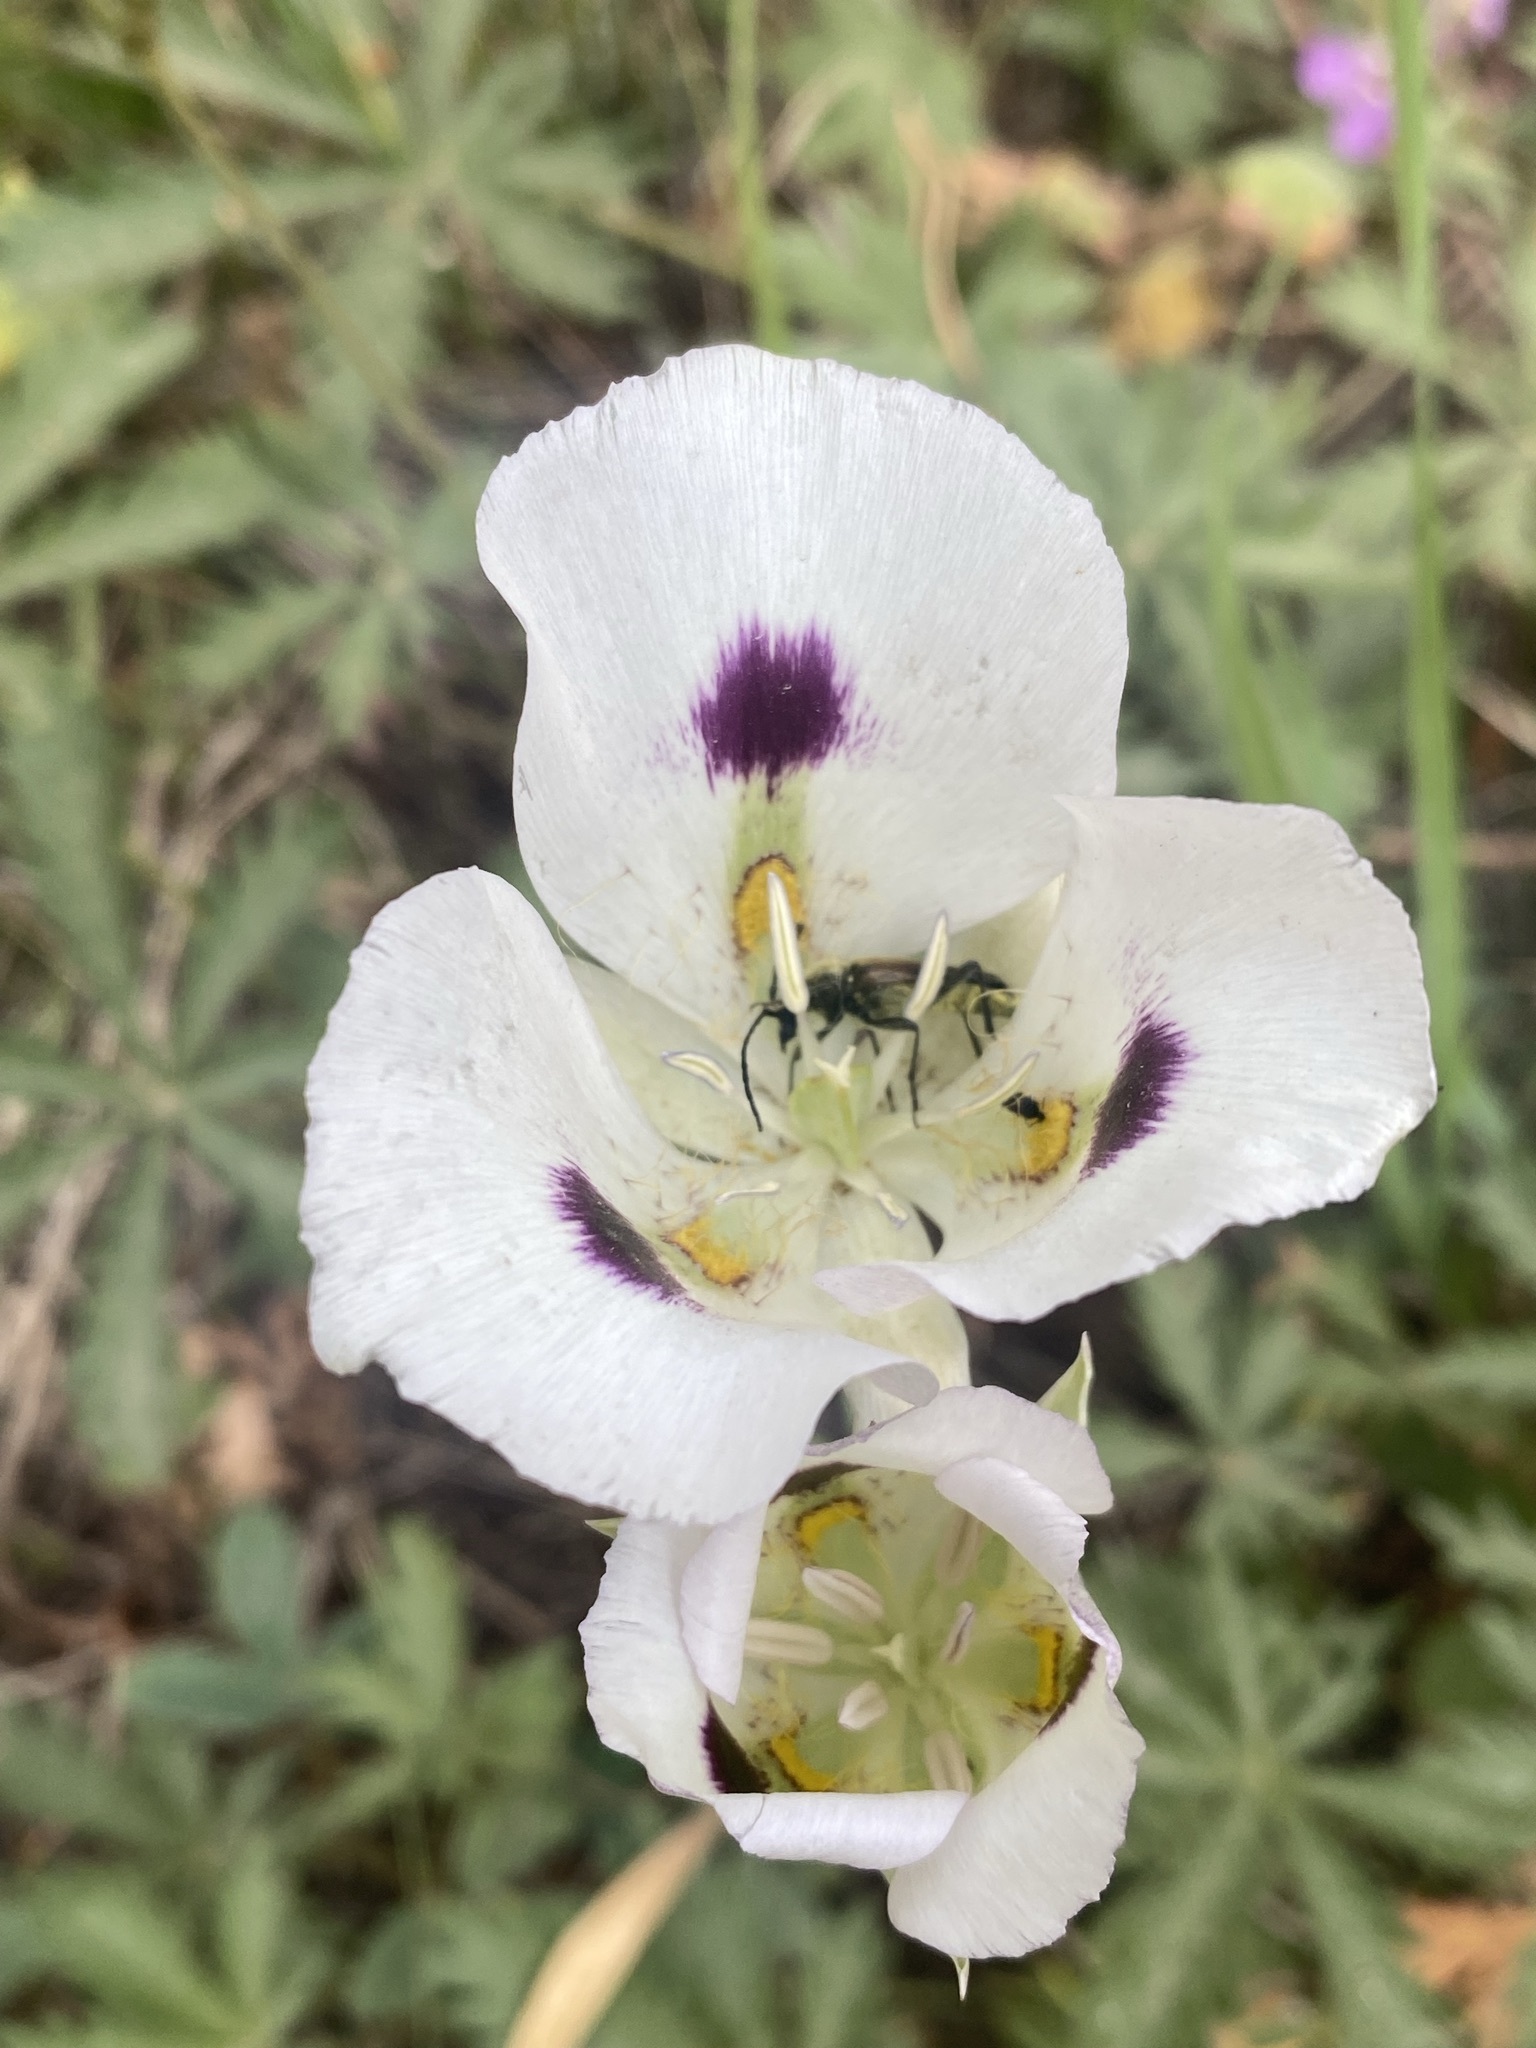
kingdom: Plantae
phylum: Tracheophyta
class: Liliopsida
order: Liliales
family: Liliaceae
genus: Calochortus
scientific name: Calochortus eurycarpus
